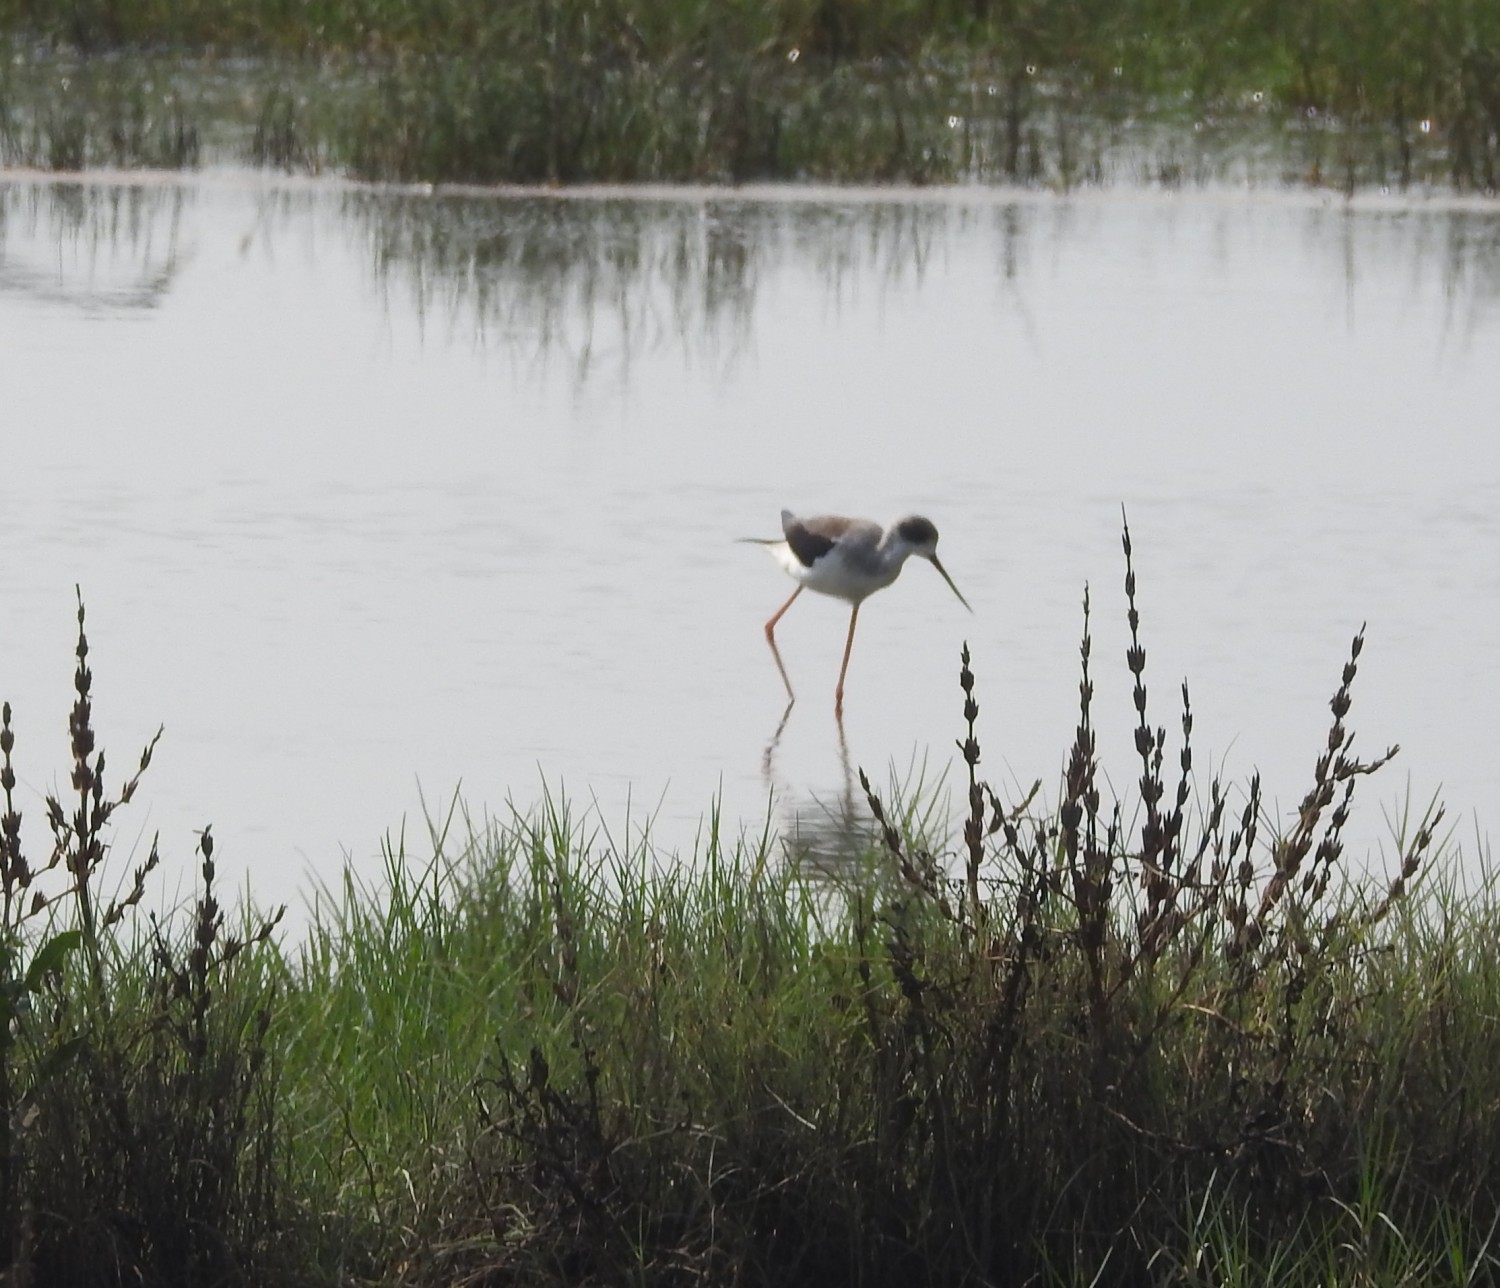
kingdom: Animalia
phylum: Chordata
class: Aves
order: Charadriiformes
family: Recurvirostridae
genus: Himantopus
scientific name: Himantopus himantopus
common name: Black-winged stilt
